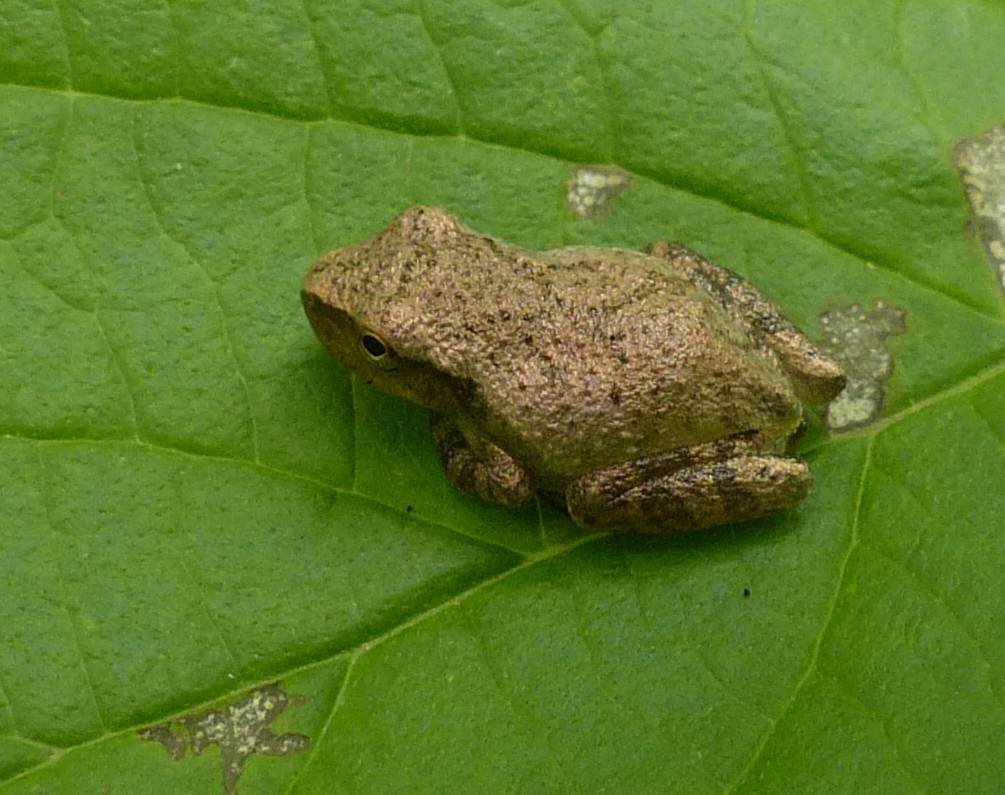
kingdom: Animalia
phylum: Chordata
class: Amphibia
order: Anura
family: Hylidae
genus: Pseudacris
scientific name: Pseudacris crucifer
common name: Spring peeper
